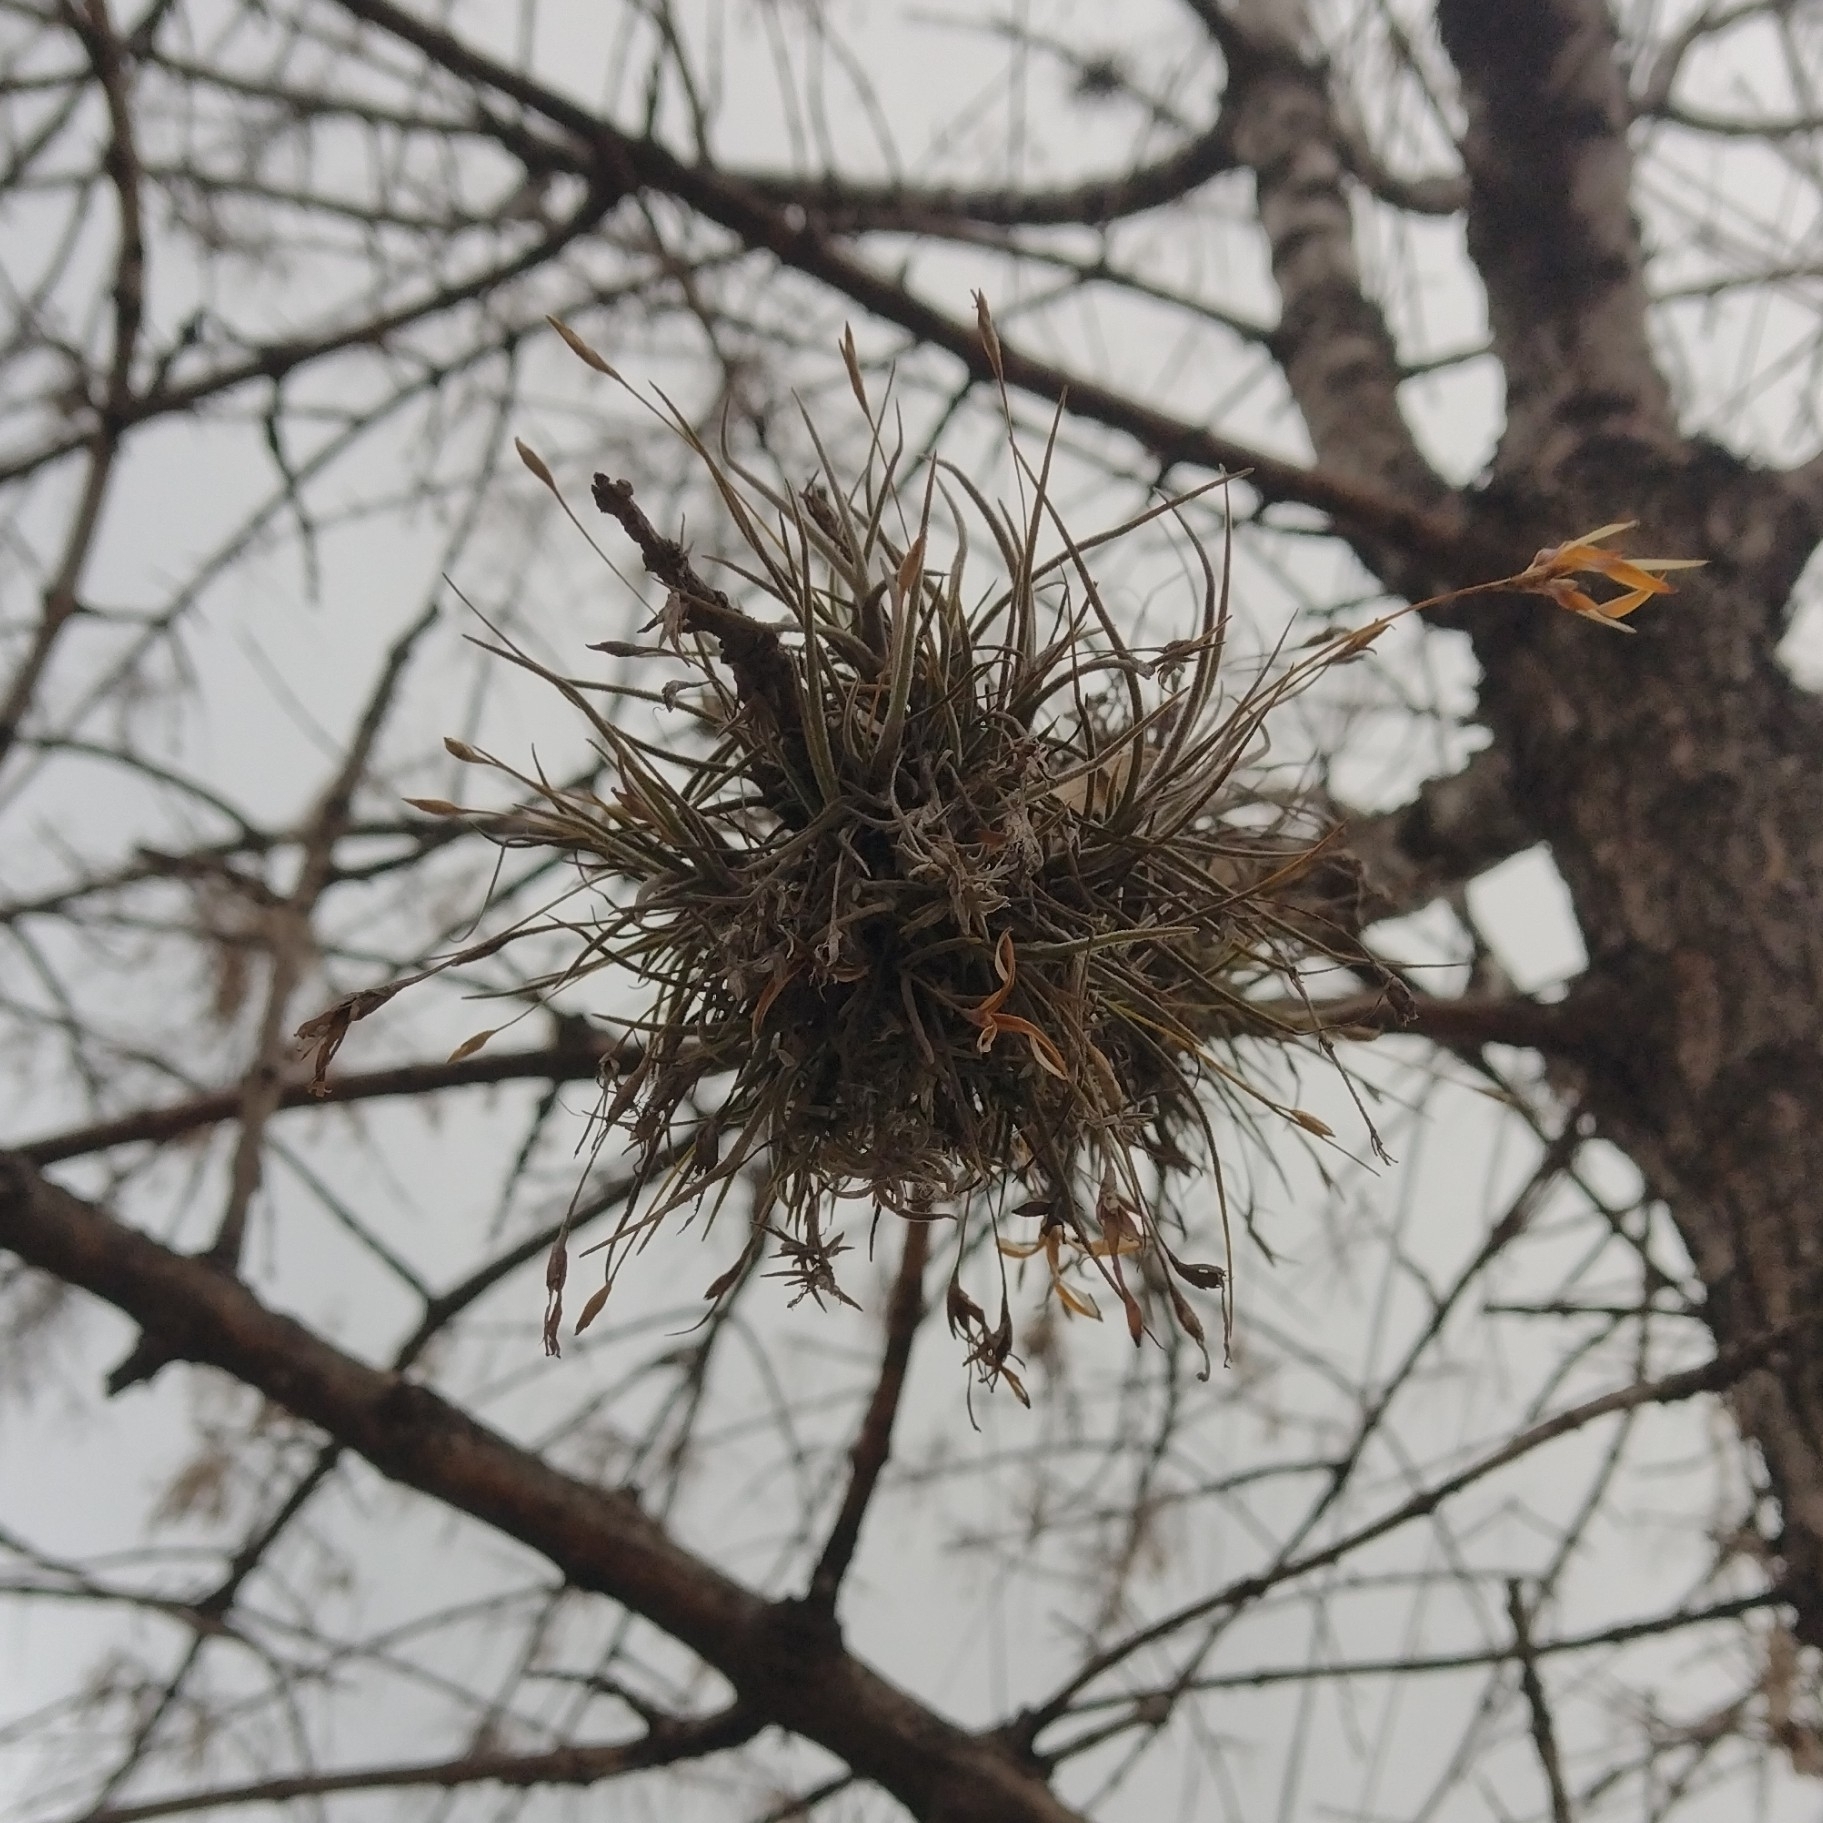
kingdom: Plantae
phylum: Tracheophyta
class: Liliopsida
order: Poales
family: Bromeliaceae
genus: Tillandsia
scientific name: Tillandsia recurvata
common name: Small ballmoss
